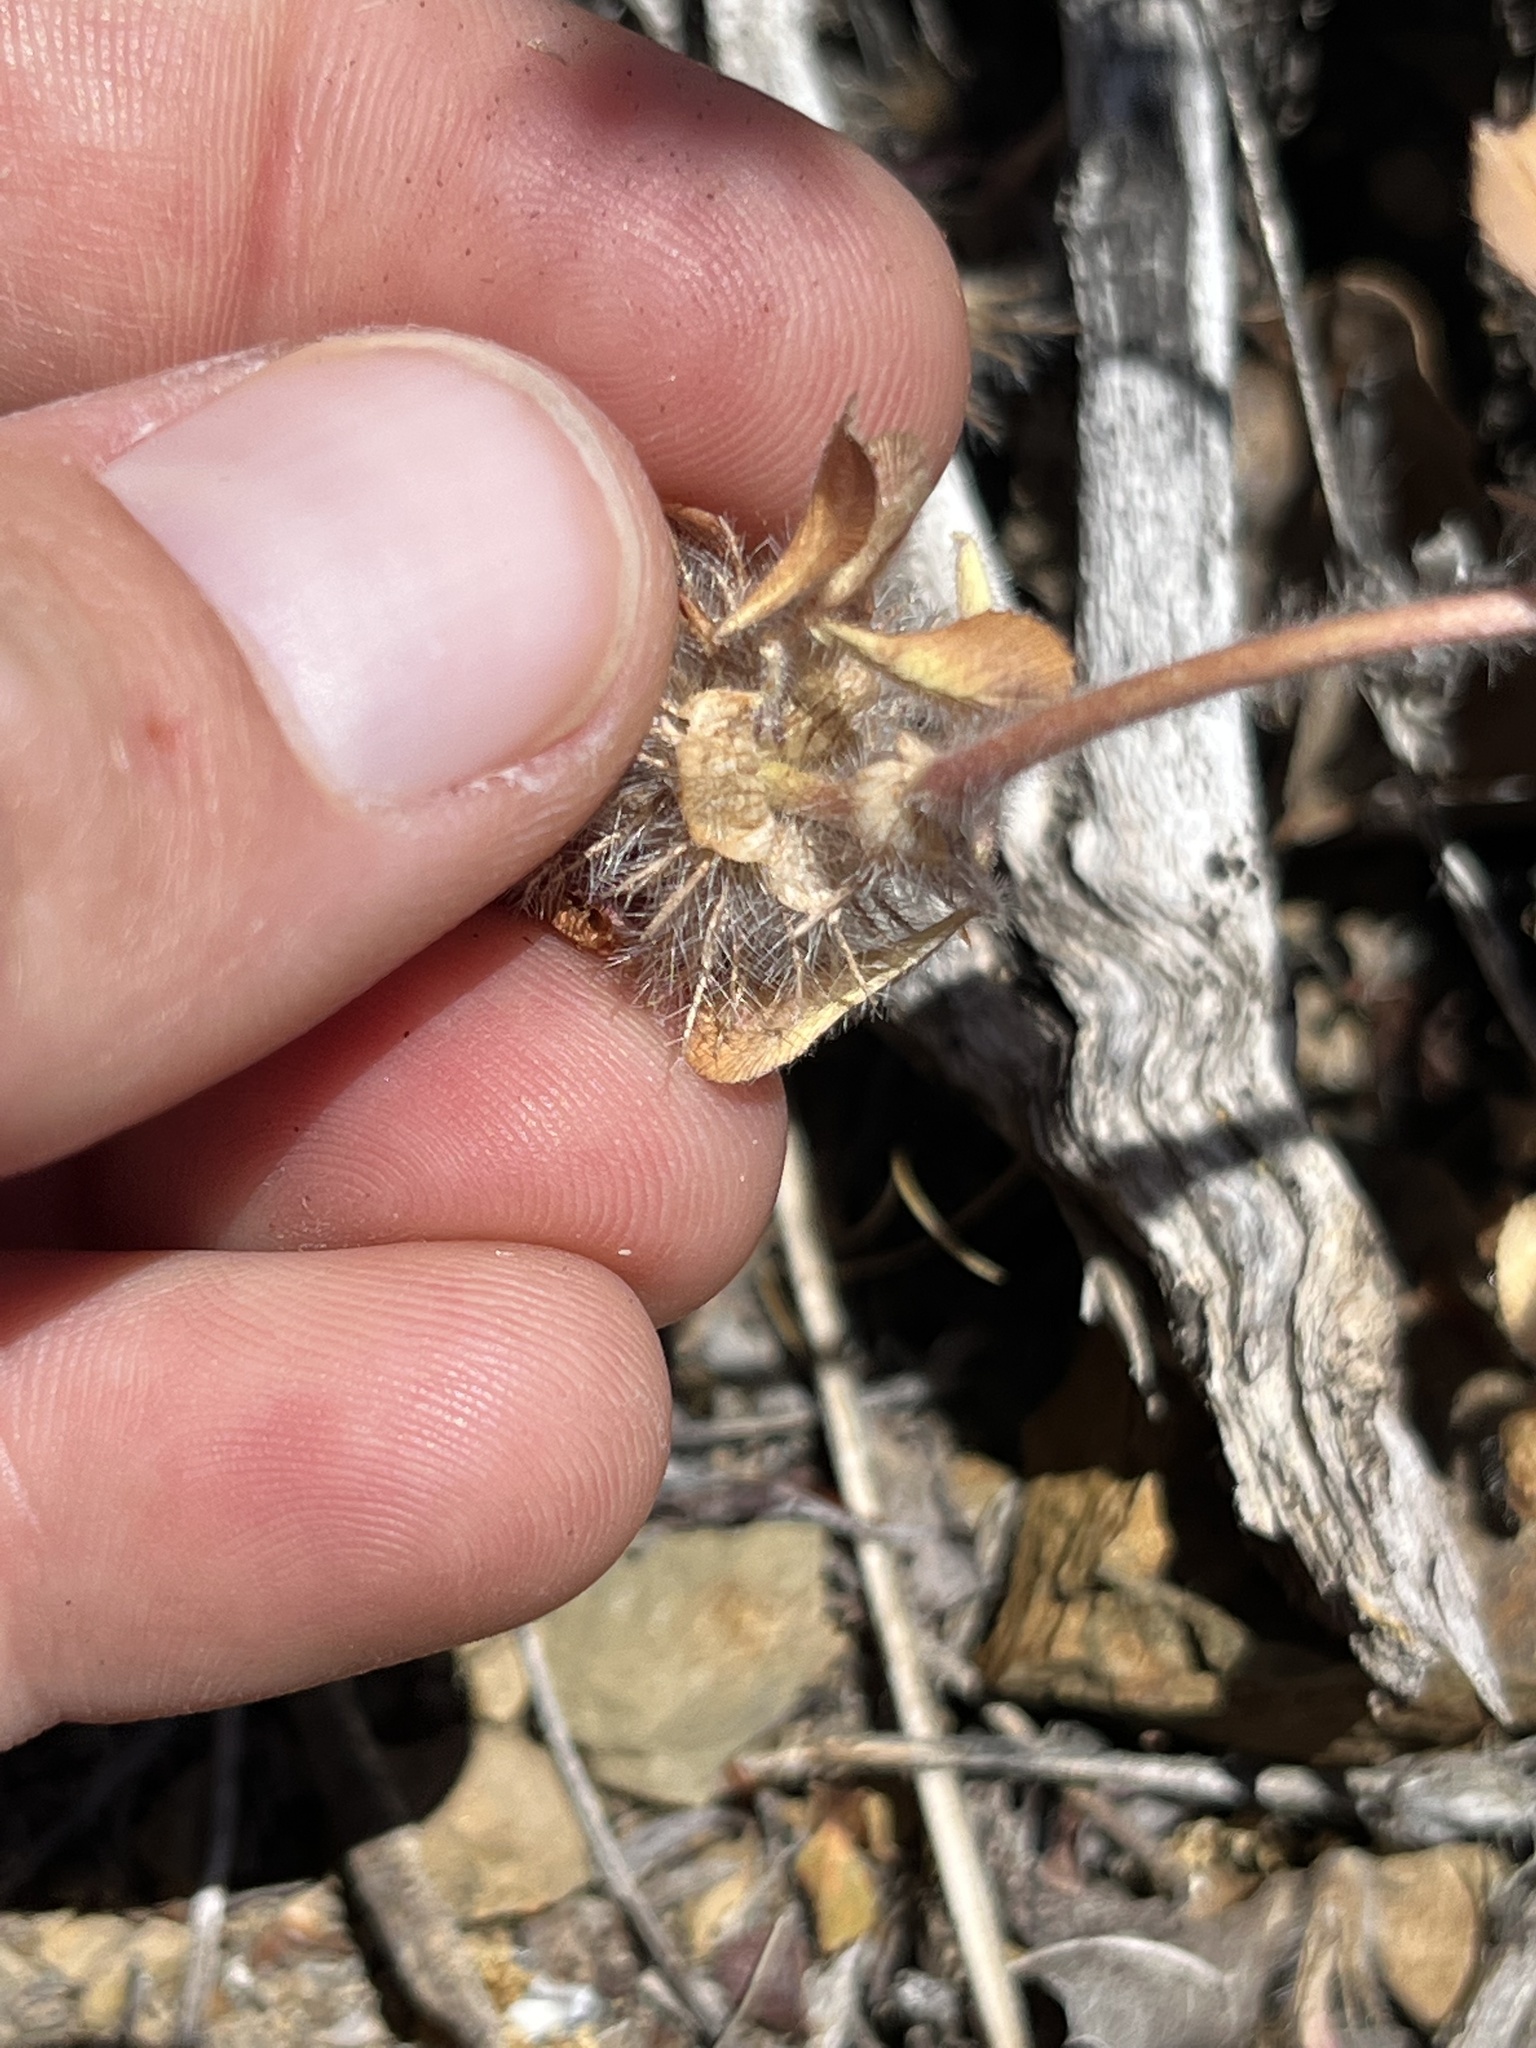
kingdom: Plantae
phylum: Tracheophyta
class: Magnoliopsida
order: Fabales
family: Fabaceae
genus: Trifolium
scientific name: Trifolium hirtum
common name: Rose clover
